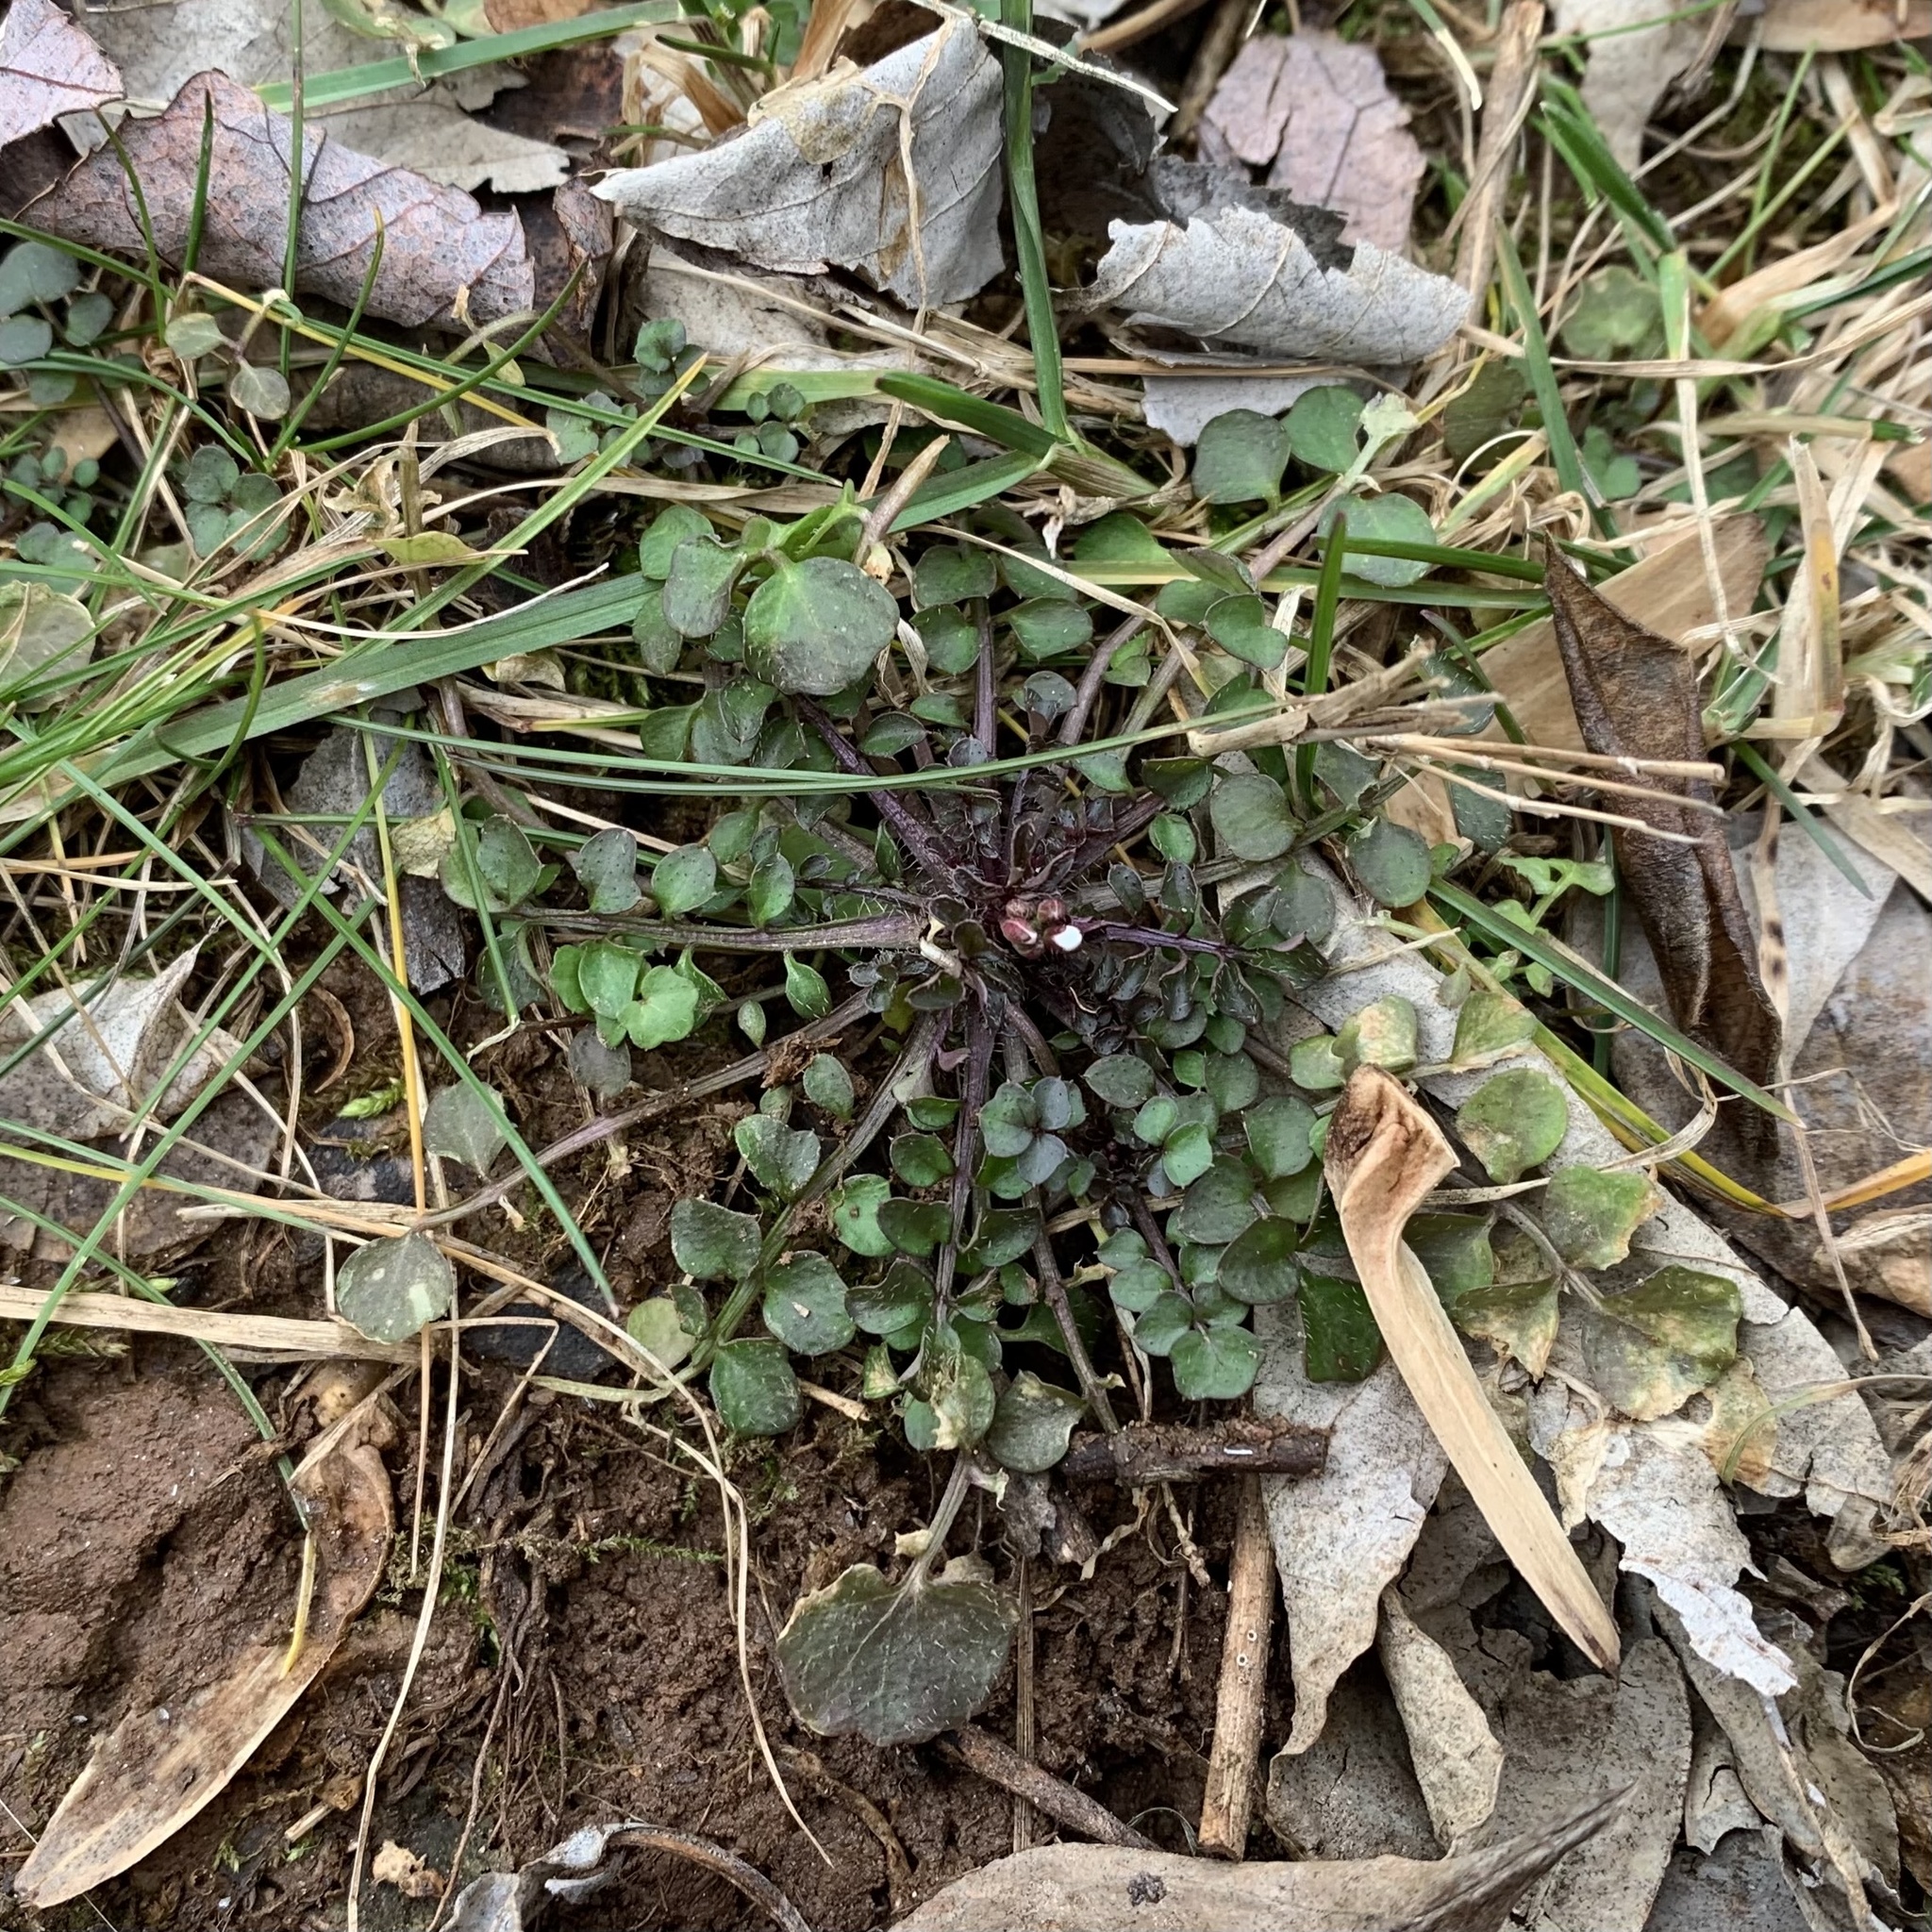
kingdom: Plantae
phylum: Tracheophyta
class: Magnoliopsida
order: Brassicales
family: Brassicaceae
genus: Cardamine
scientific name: Cardamine hirsuta
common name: Hairy bittercress
